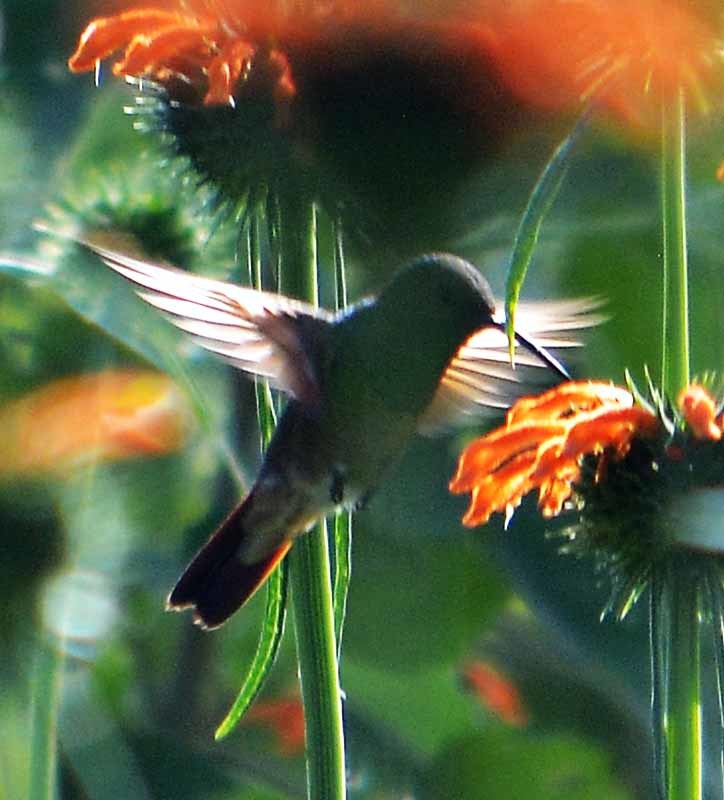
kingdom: Animalia
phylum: Chordata
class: Aves
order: Apodiformes
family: Trochilidae
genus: Saucerottia
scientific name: Saucerottia beryllina
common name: Berylline hummingbird
